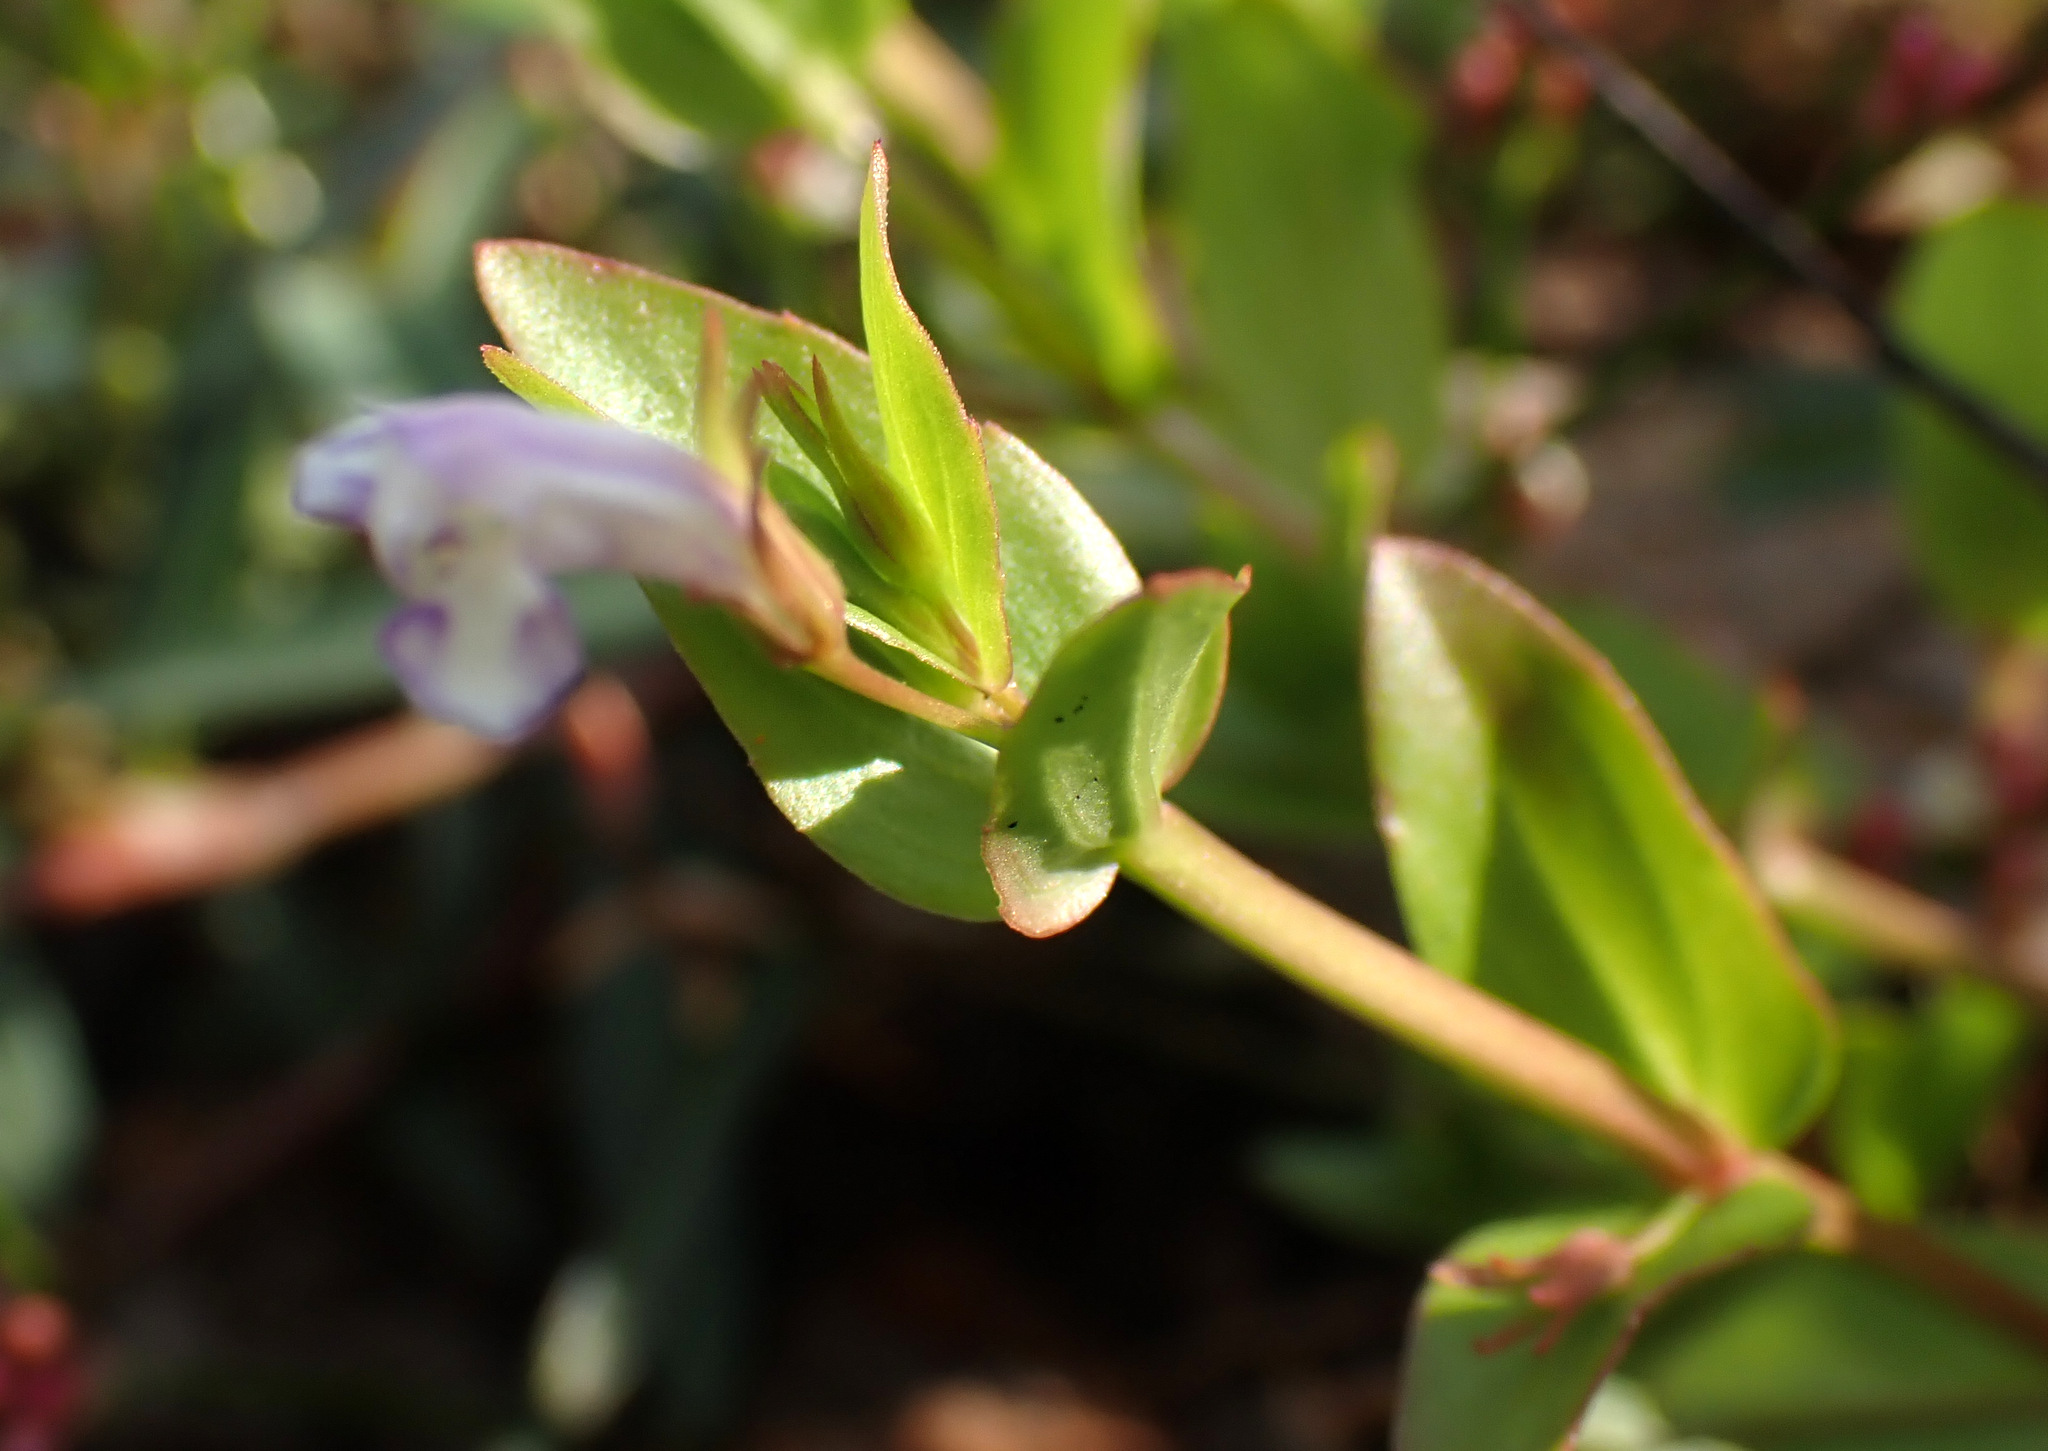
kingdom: Plantae
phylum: Tracheophyta
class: Magnoliopsida
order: Lamiales
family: Linderniaceae
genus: Lindernia
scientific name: Lindernia dubia
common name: Annual false pimpernel
